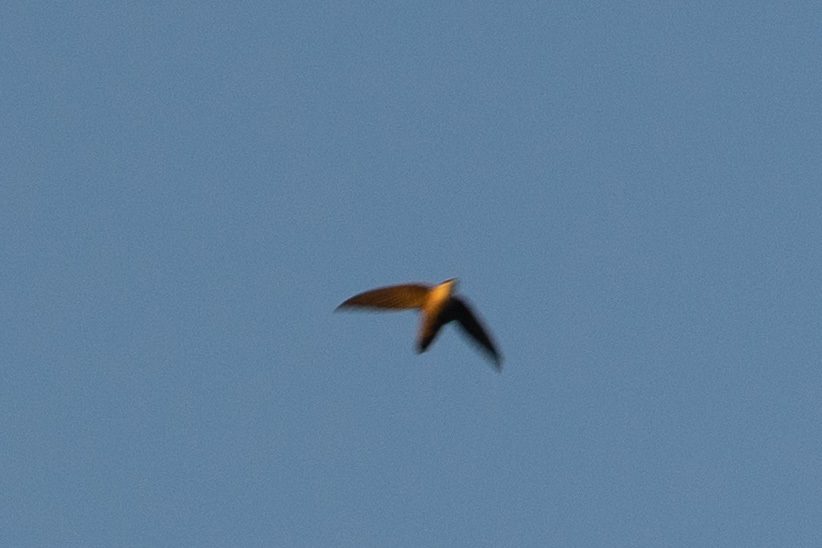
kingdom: Animalia
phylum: Chordata
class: Aves
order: Apodiformes
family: Apodidae
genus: Chaetura
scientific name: Chaetura pelagica
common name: Chimney swift
